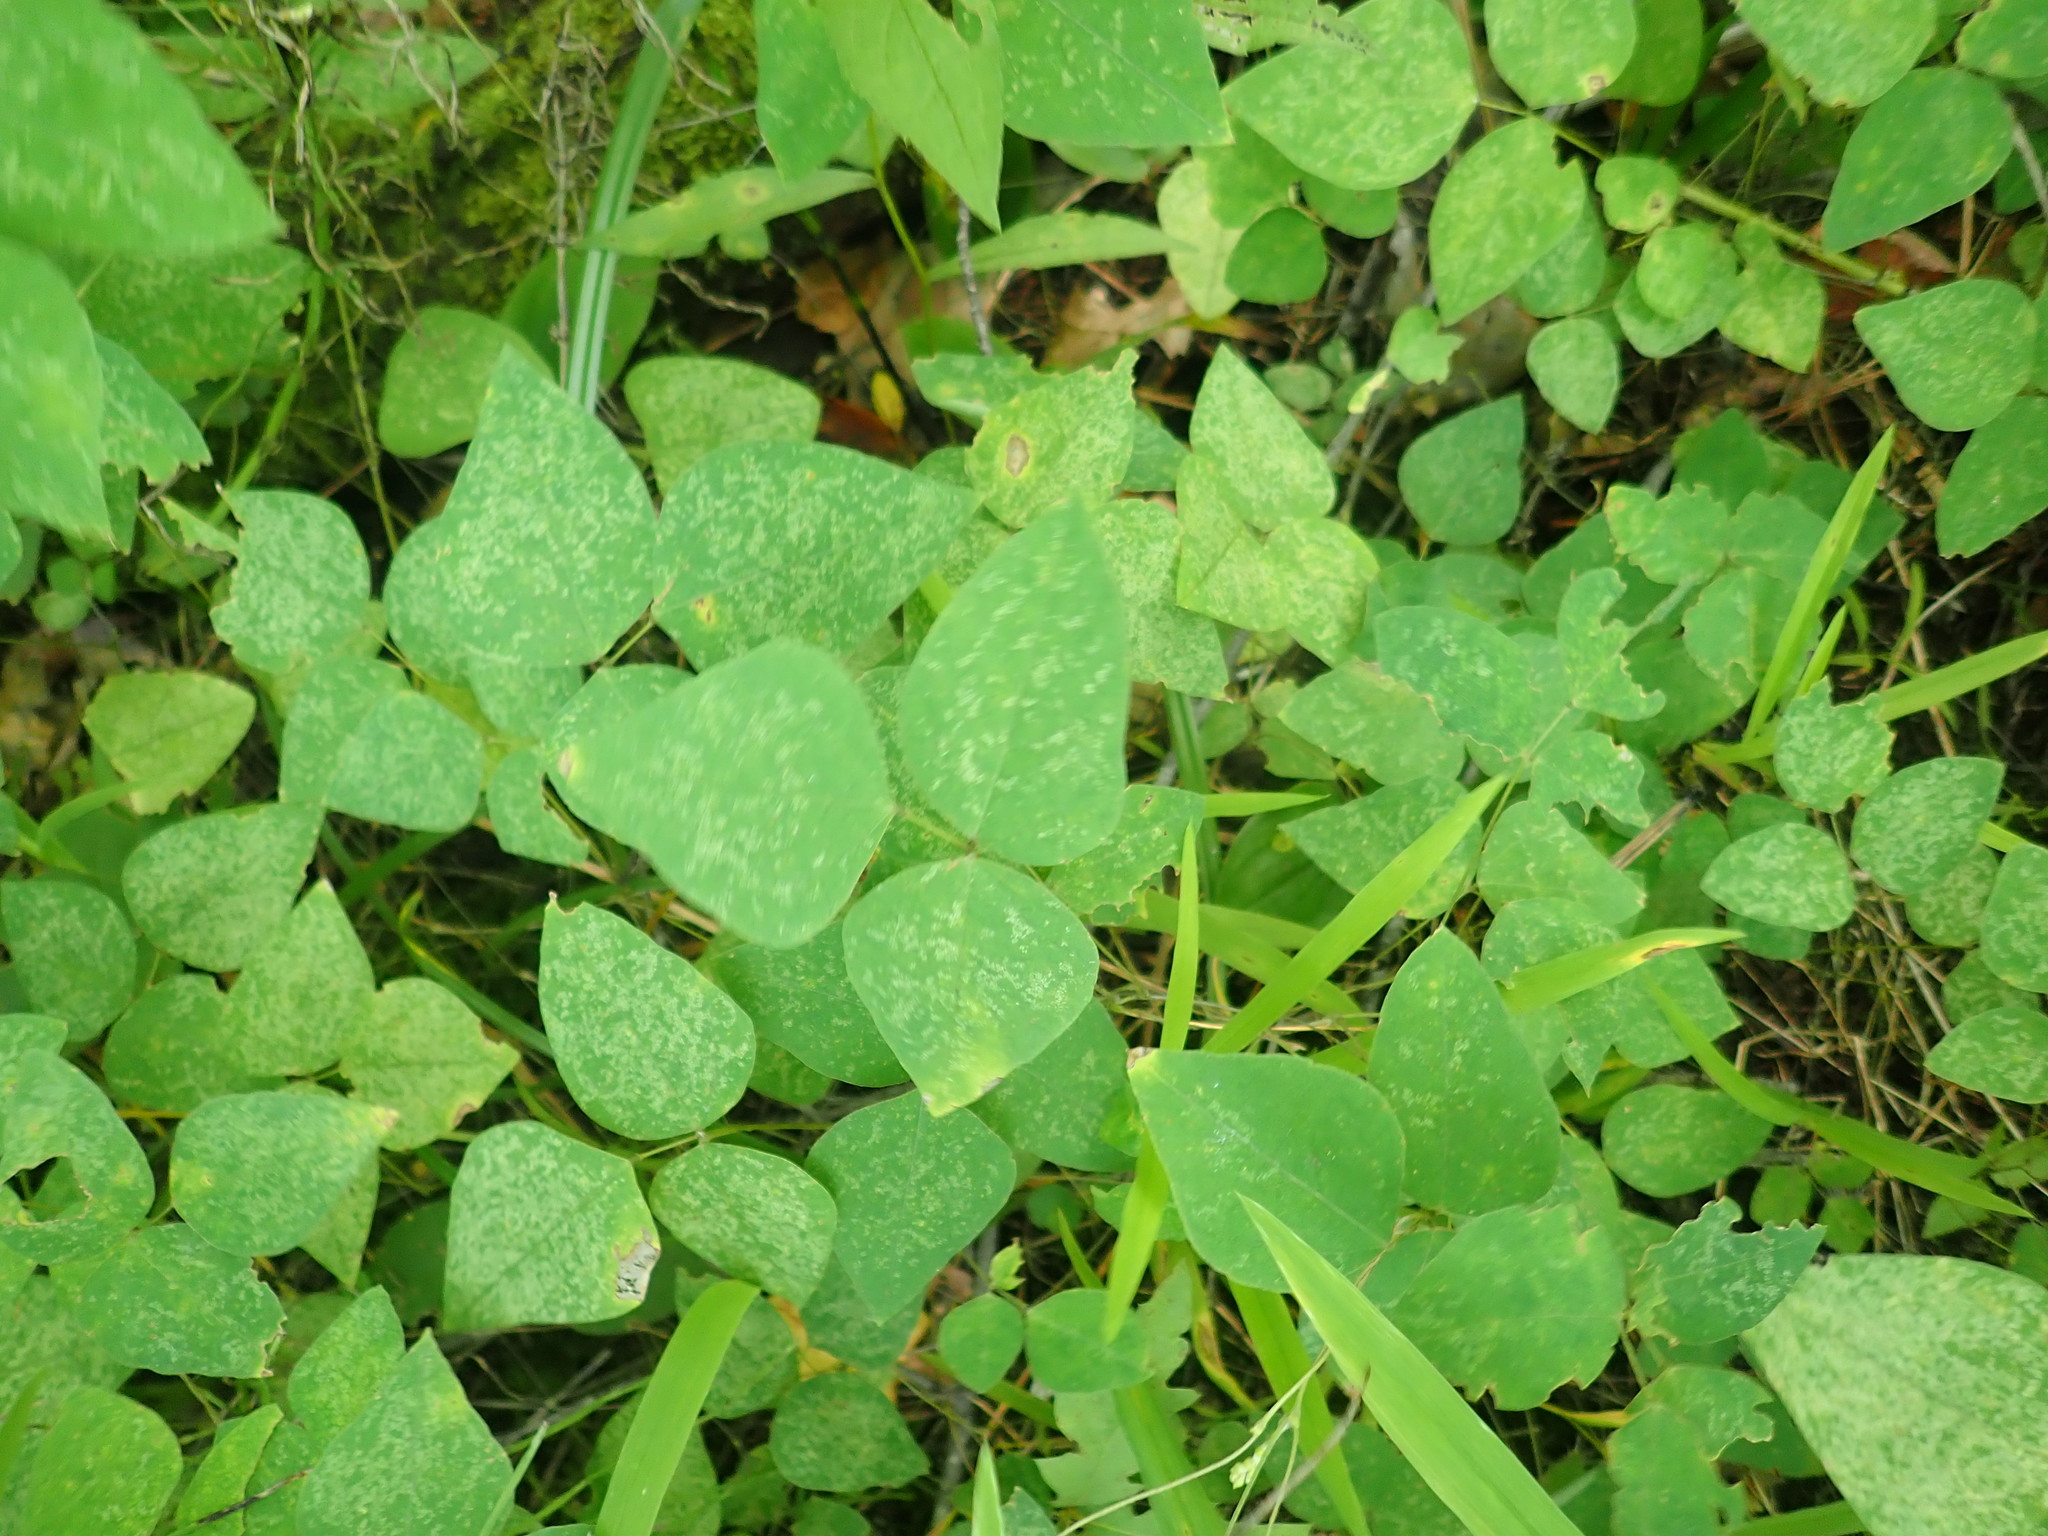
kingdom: Plantae
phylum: Tracheophyta
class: Magnoliopsida
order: Fabales
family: Fabaceae
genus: Amphicarpaea
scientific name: Amphicarpaea bracteata
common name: American hog peanut
